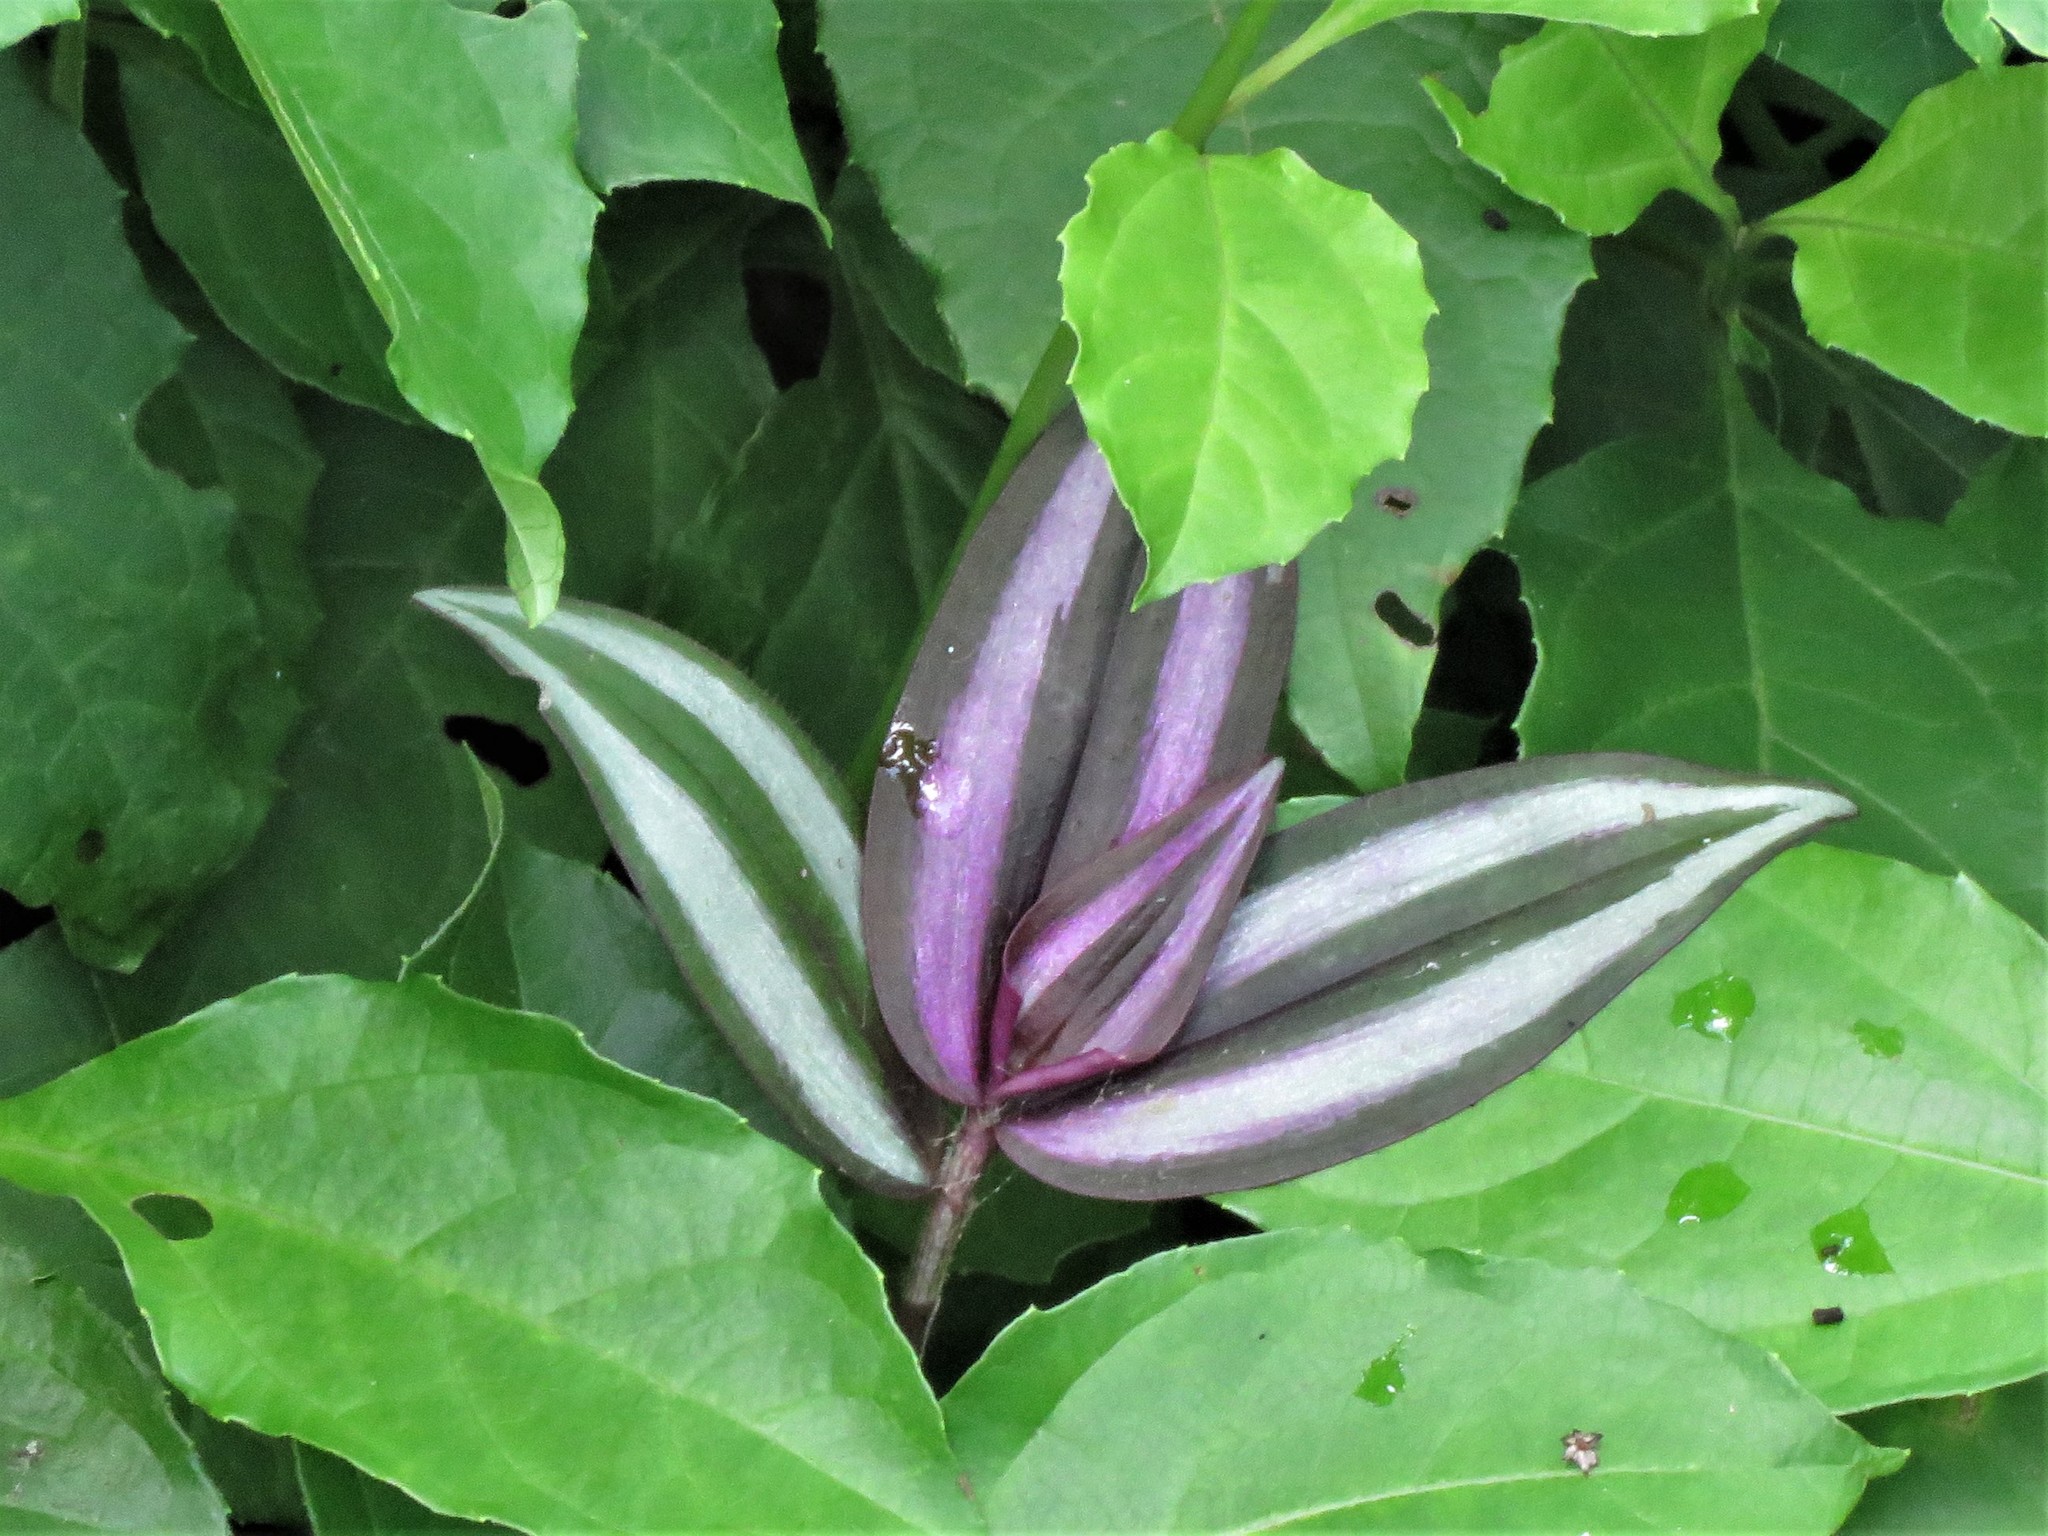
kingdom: Plantae
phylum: Tracheophyta
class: Liliopsida
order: Commelinales
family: Commelinaceae
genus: Tradescantia
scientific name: Tradescantia zebrina
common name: Inchplant
